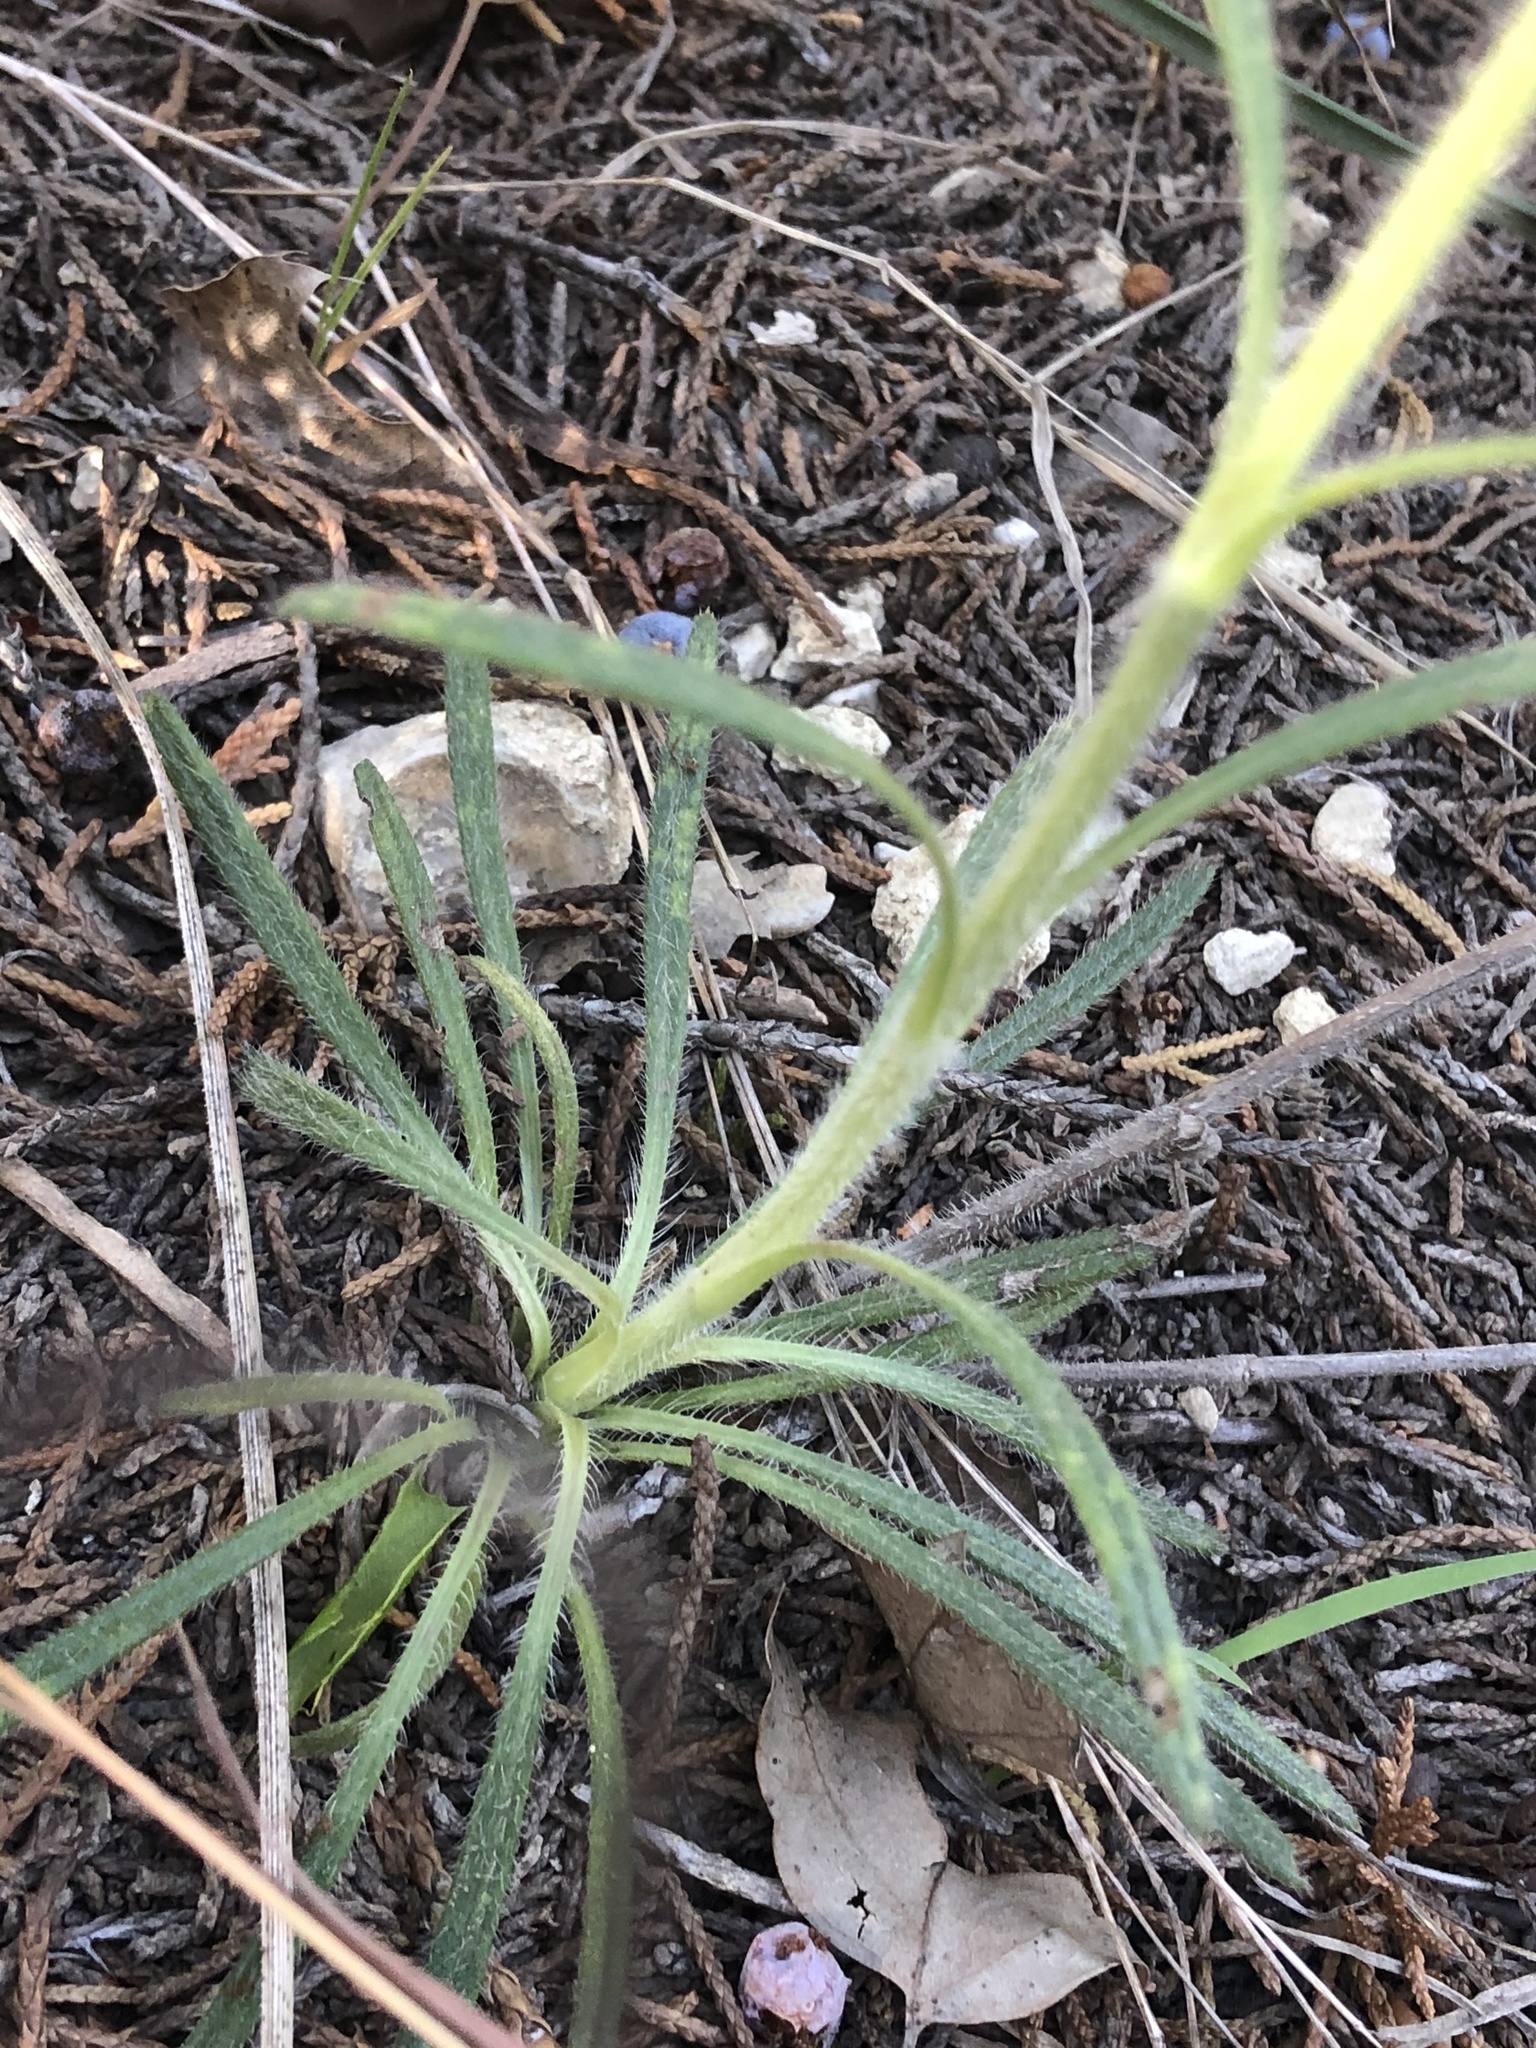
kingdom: Plantae
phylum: Tracheophyta
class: Magnoliopsida
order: Lamiales
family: Lamiaceae
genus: Salvia
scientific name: Salvia engelmannii
